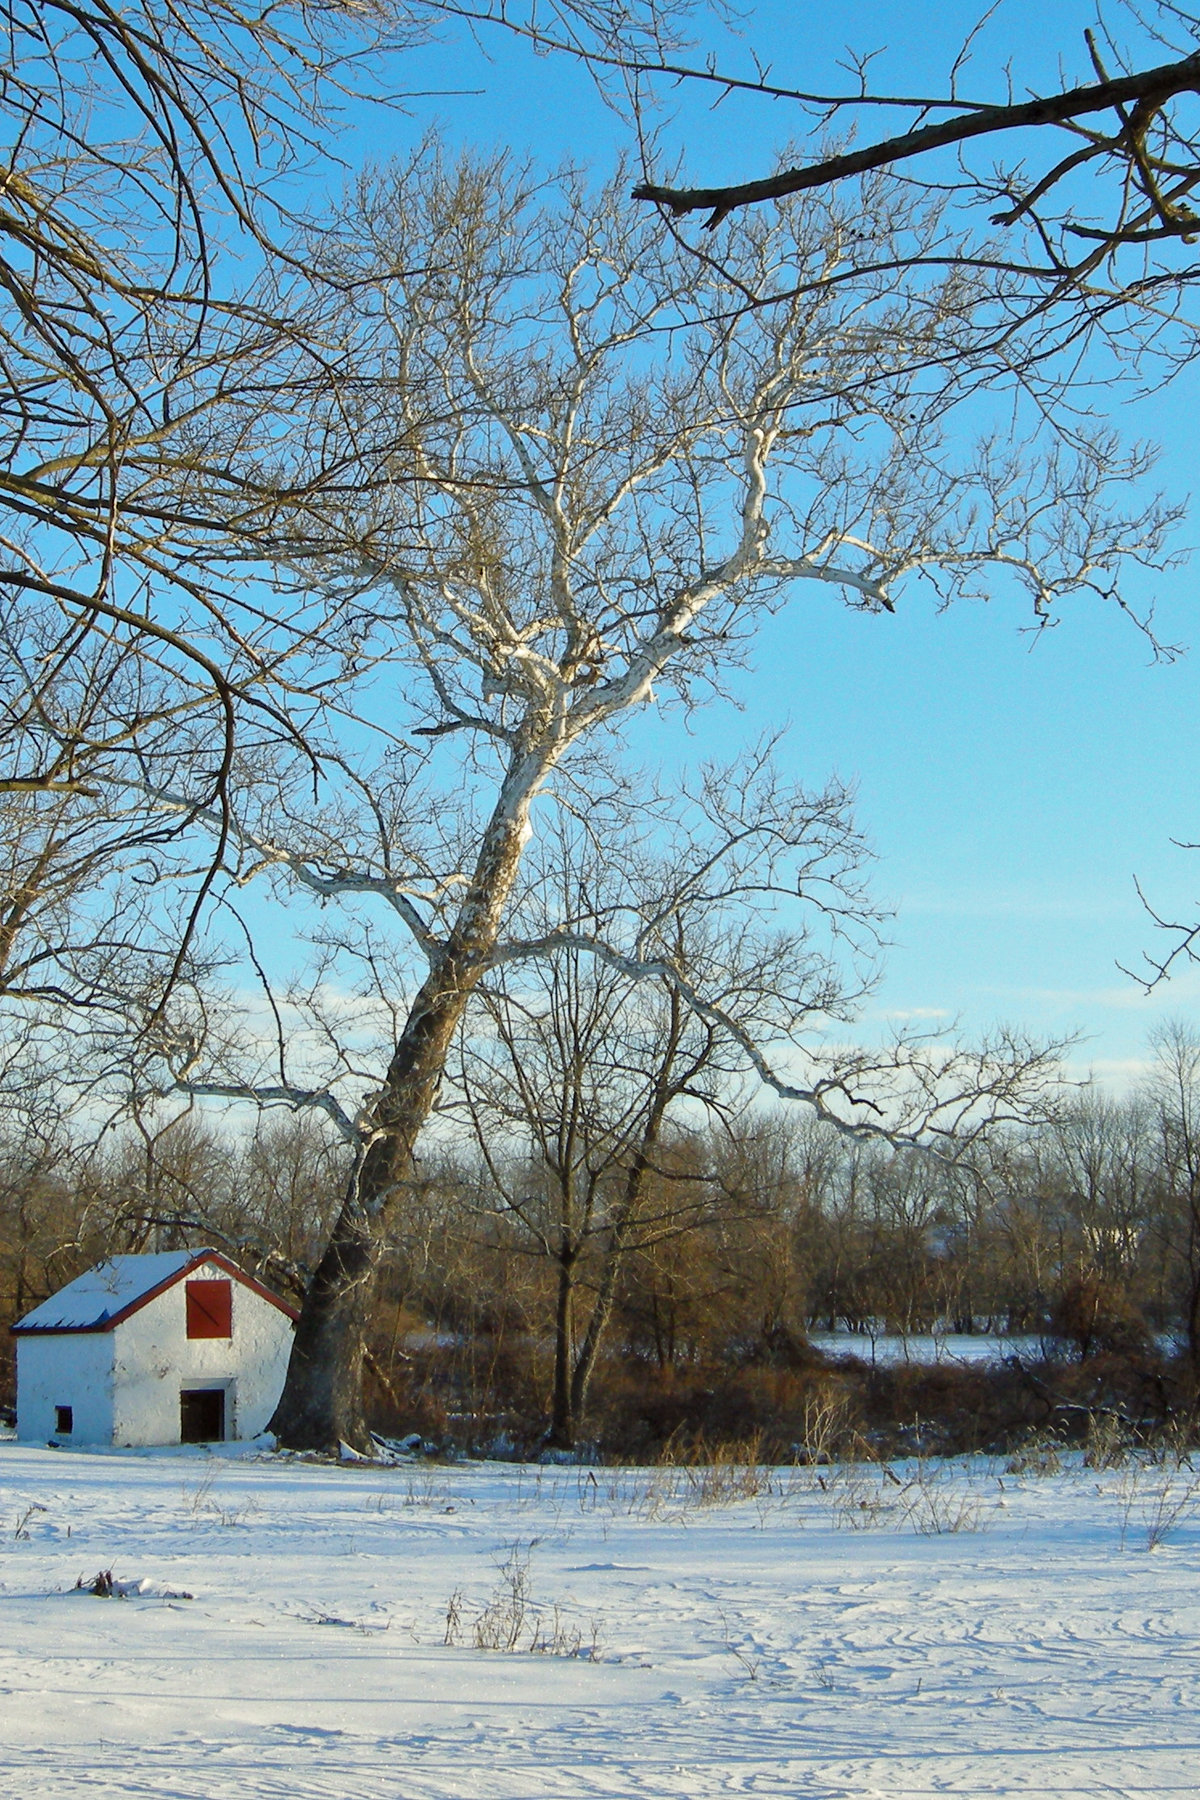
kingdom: Plantae
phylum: Tracheophyta
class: Magnoliopsida
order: Proteales
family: Platanaceae
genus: Platanus
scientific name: Platanus occidentalis
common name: American sycamore
